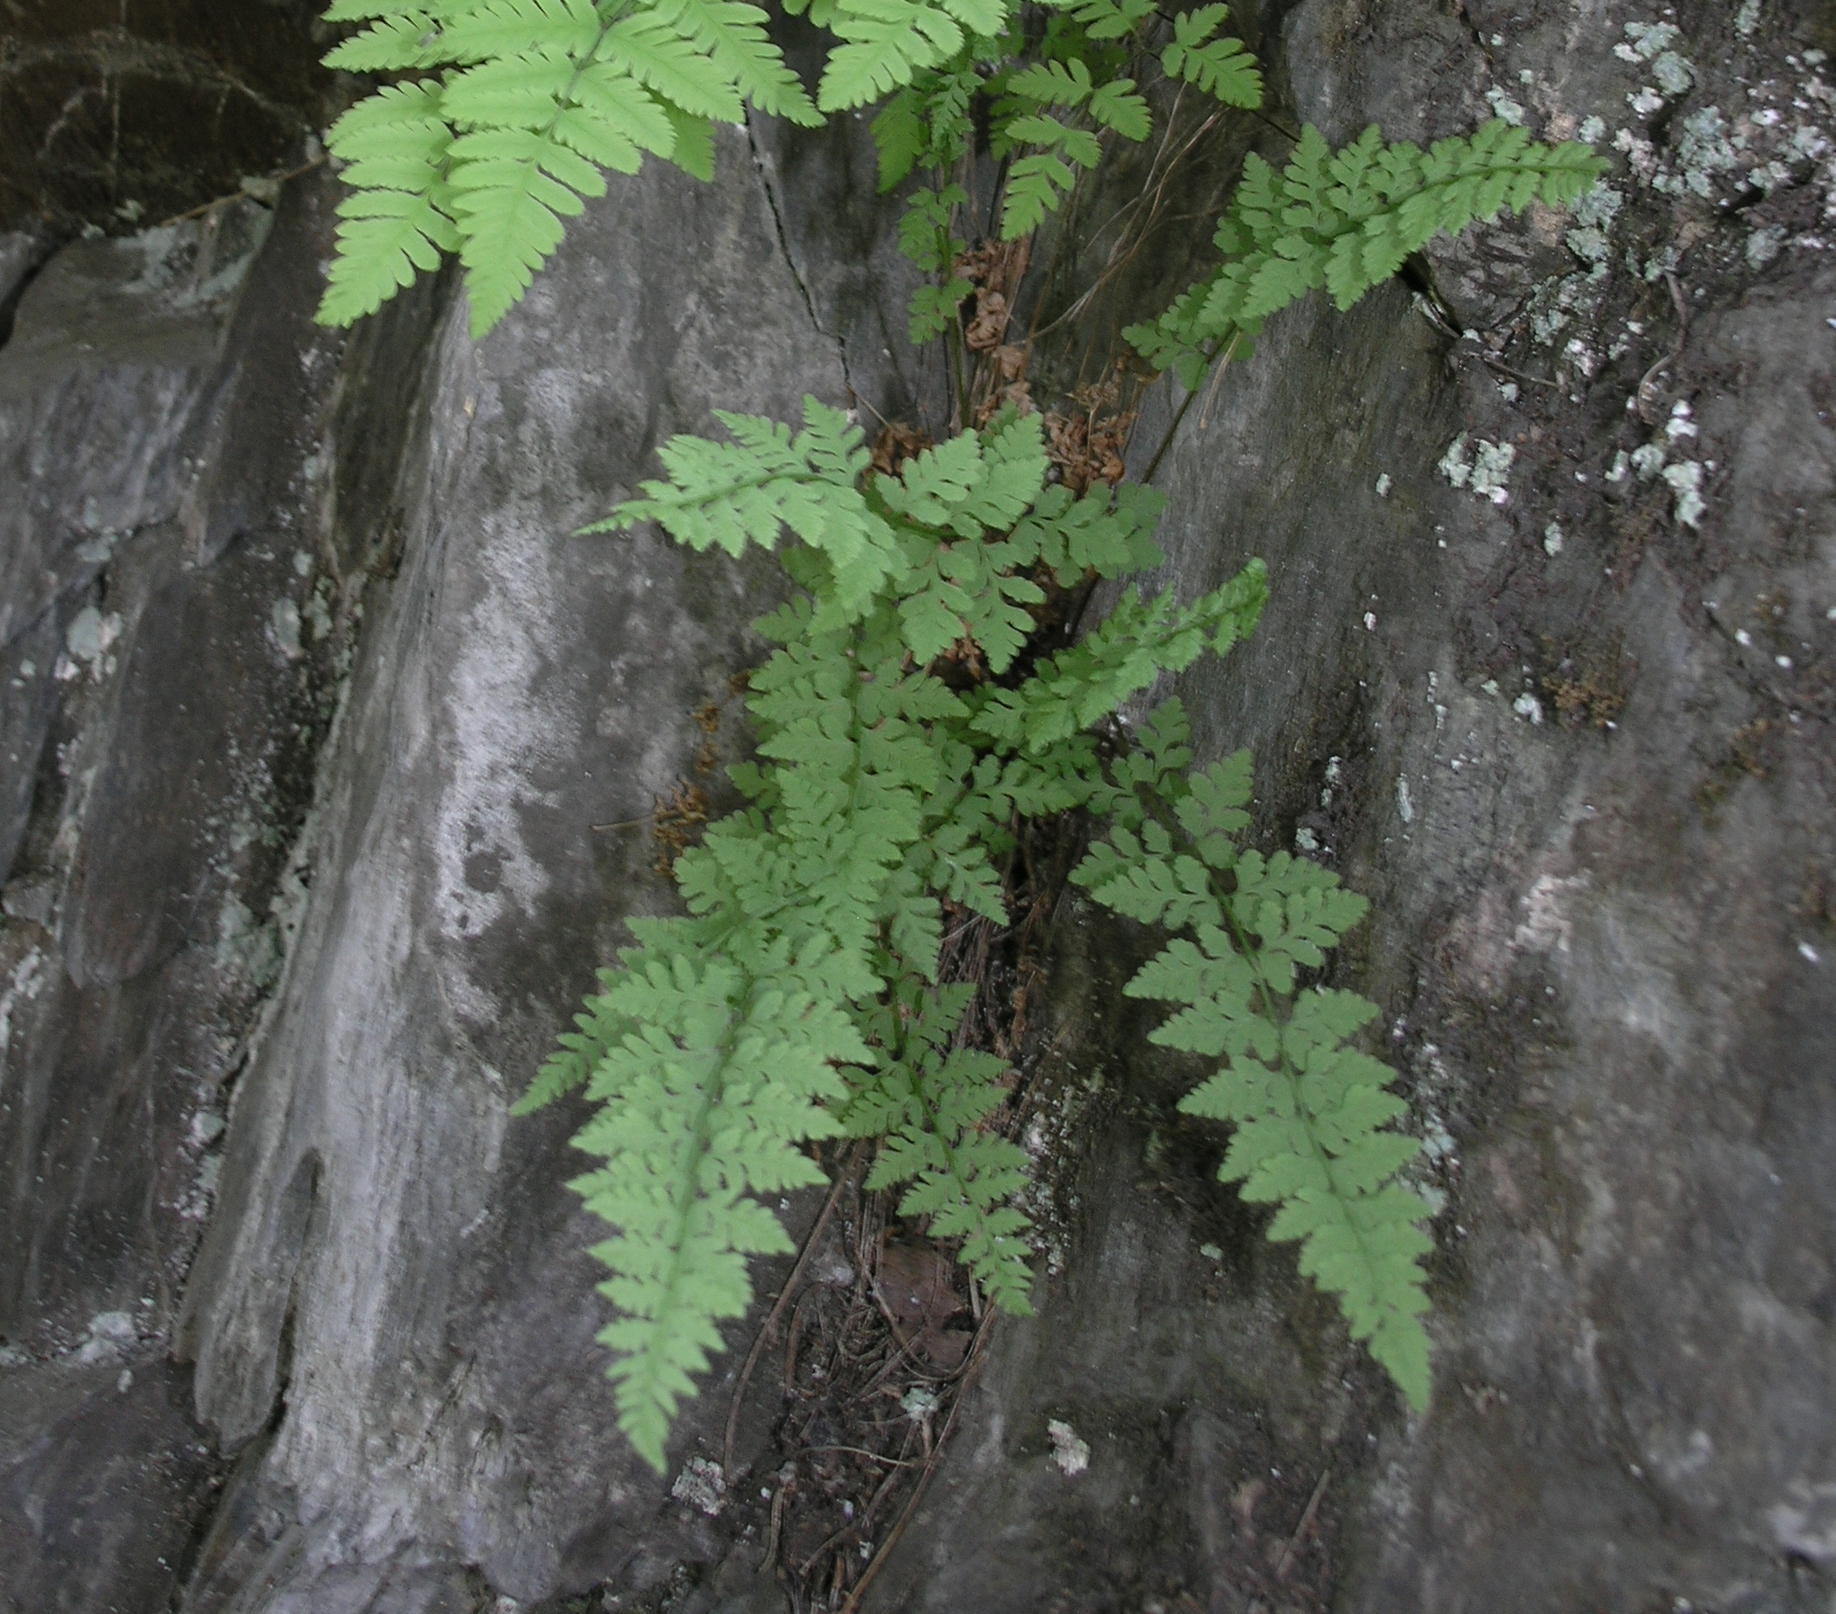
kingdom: Plantae
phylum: Tracheophyta
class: Polypodiopsida
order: Polypodiales
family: Cystopteridaceae
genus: Cystopteris
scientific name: Cystopteris fragilis
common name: Brittle bladder fern
